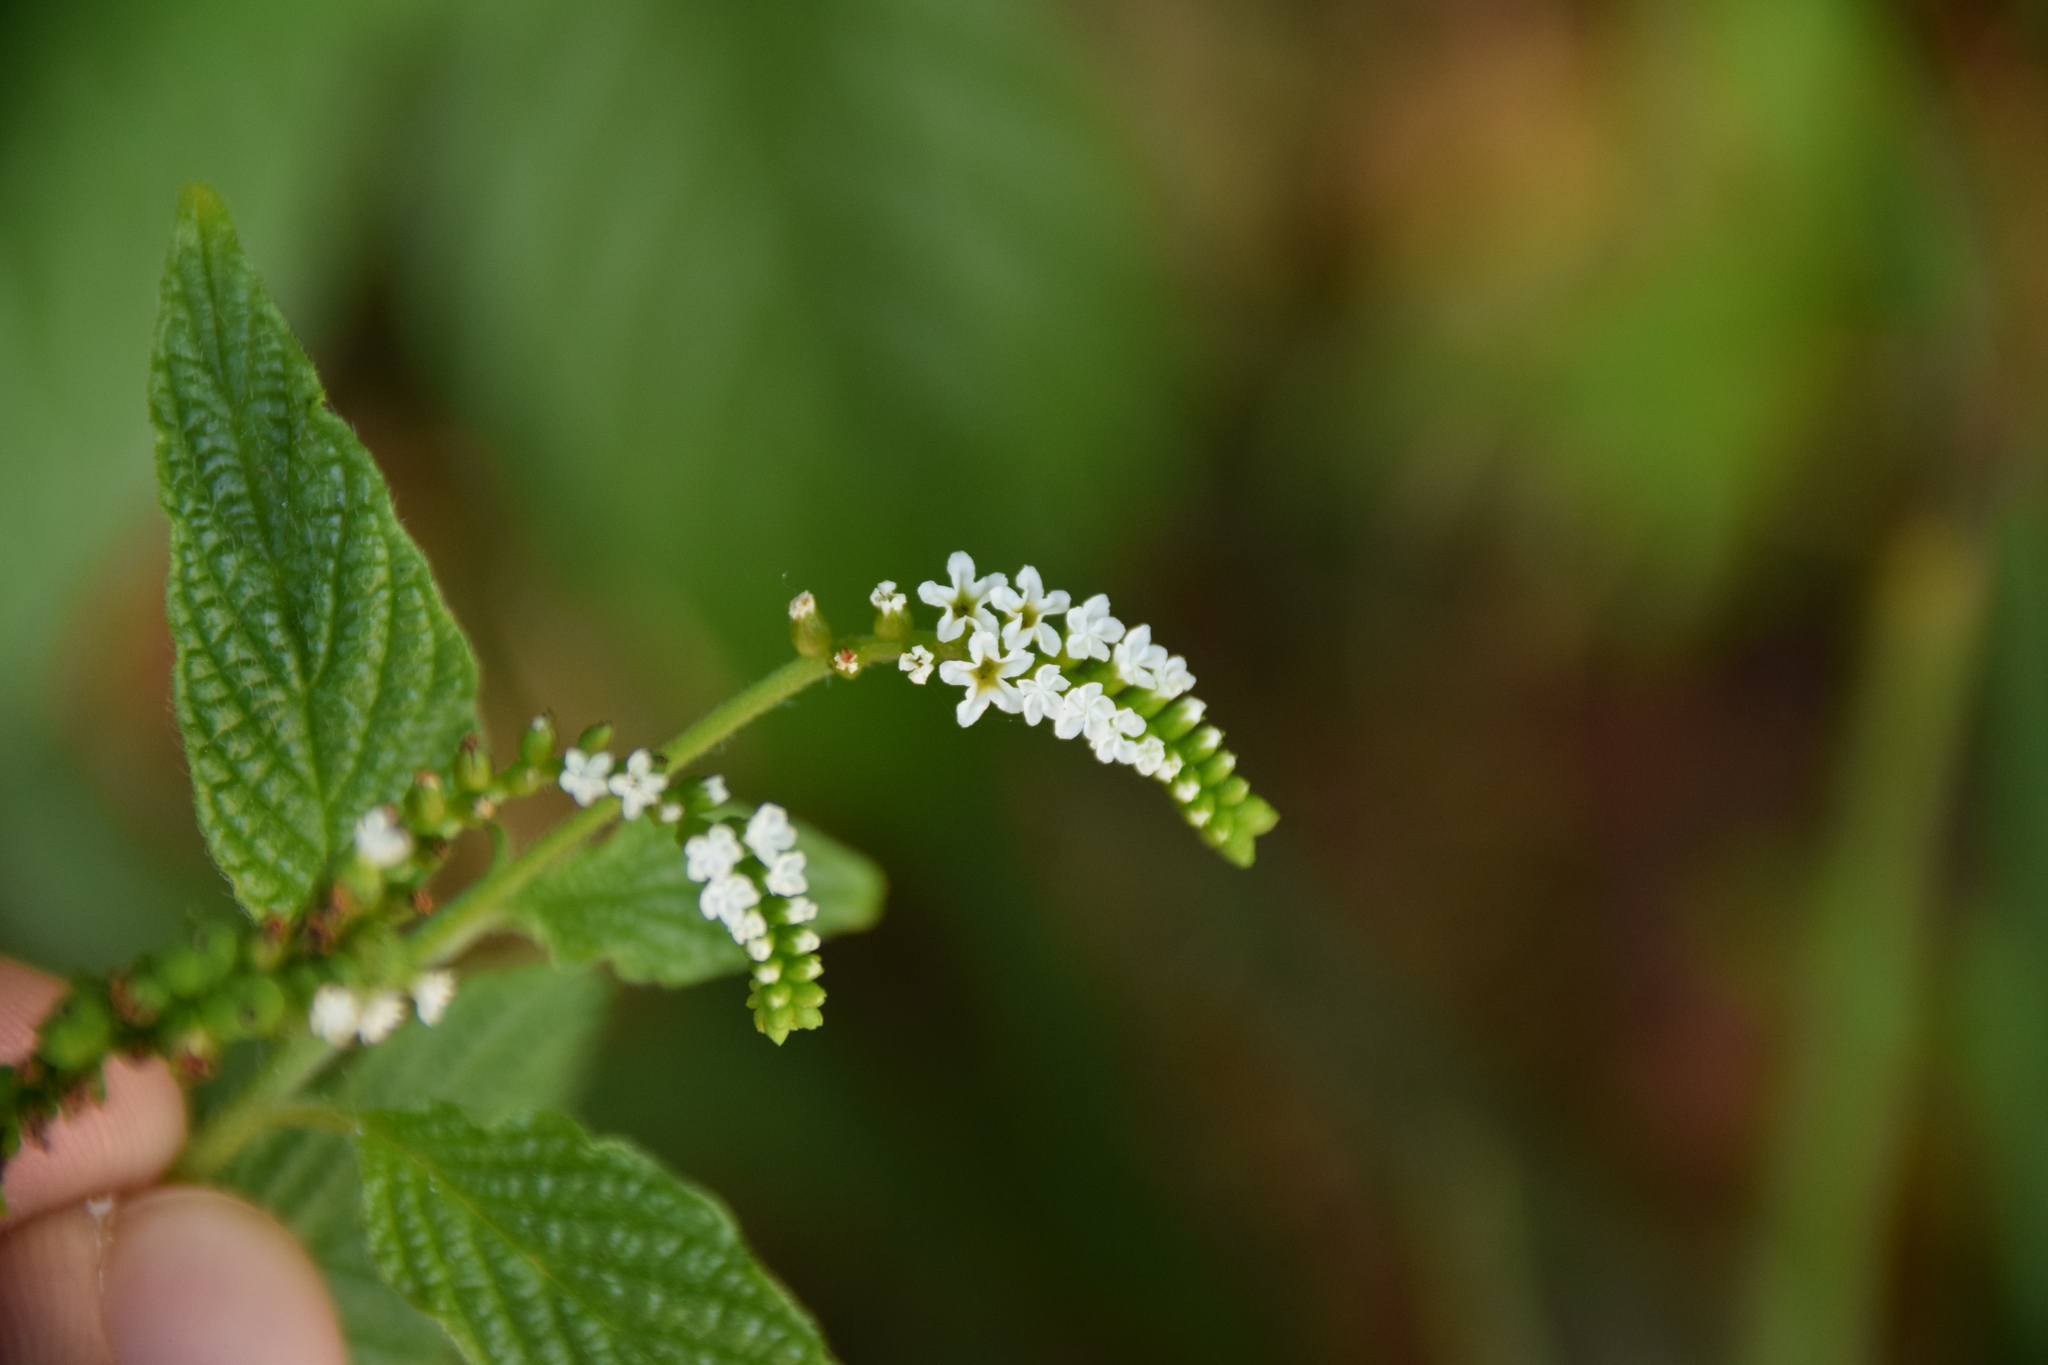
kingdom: Plantae
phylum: Tracheophyta
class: Magnoliopsida
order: Boraginales
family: Heliotropiaceae
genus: Heliotropium
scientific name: Heliotropium angiospermum
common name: Eye bright
